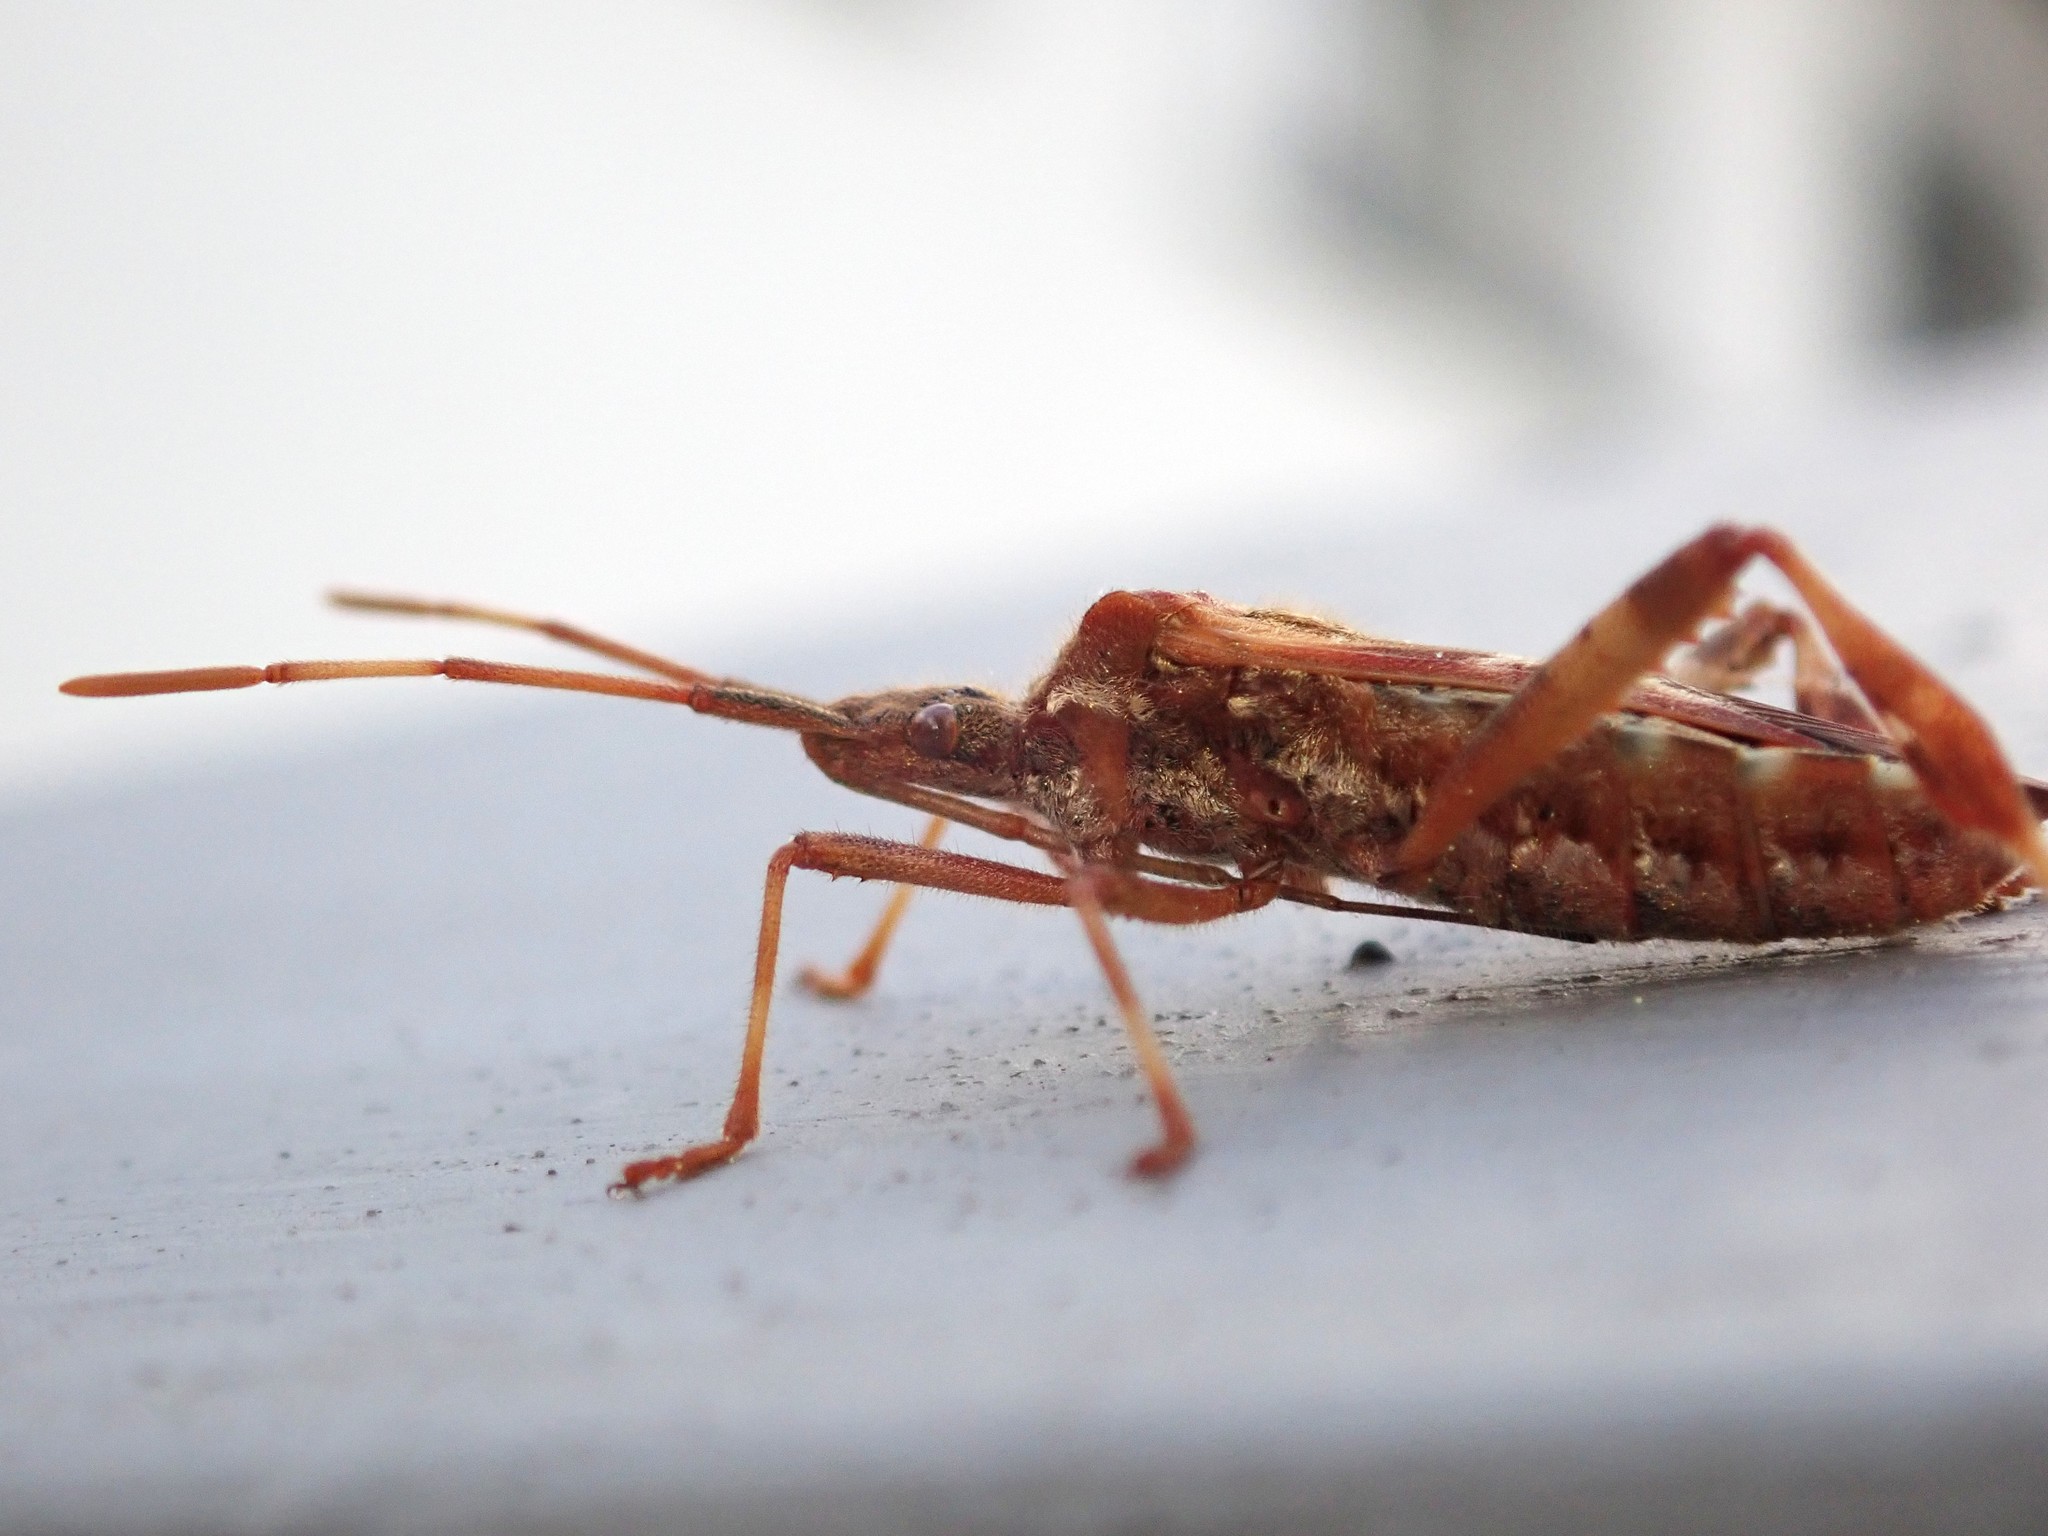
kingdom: Animalia
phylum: Arthropoda
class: Insecta
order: Hemiptera
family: Coreidae
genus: Leptoglossus
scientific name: Leptoglossus occidentalis
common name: Western conifer-seed bug
